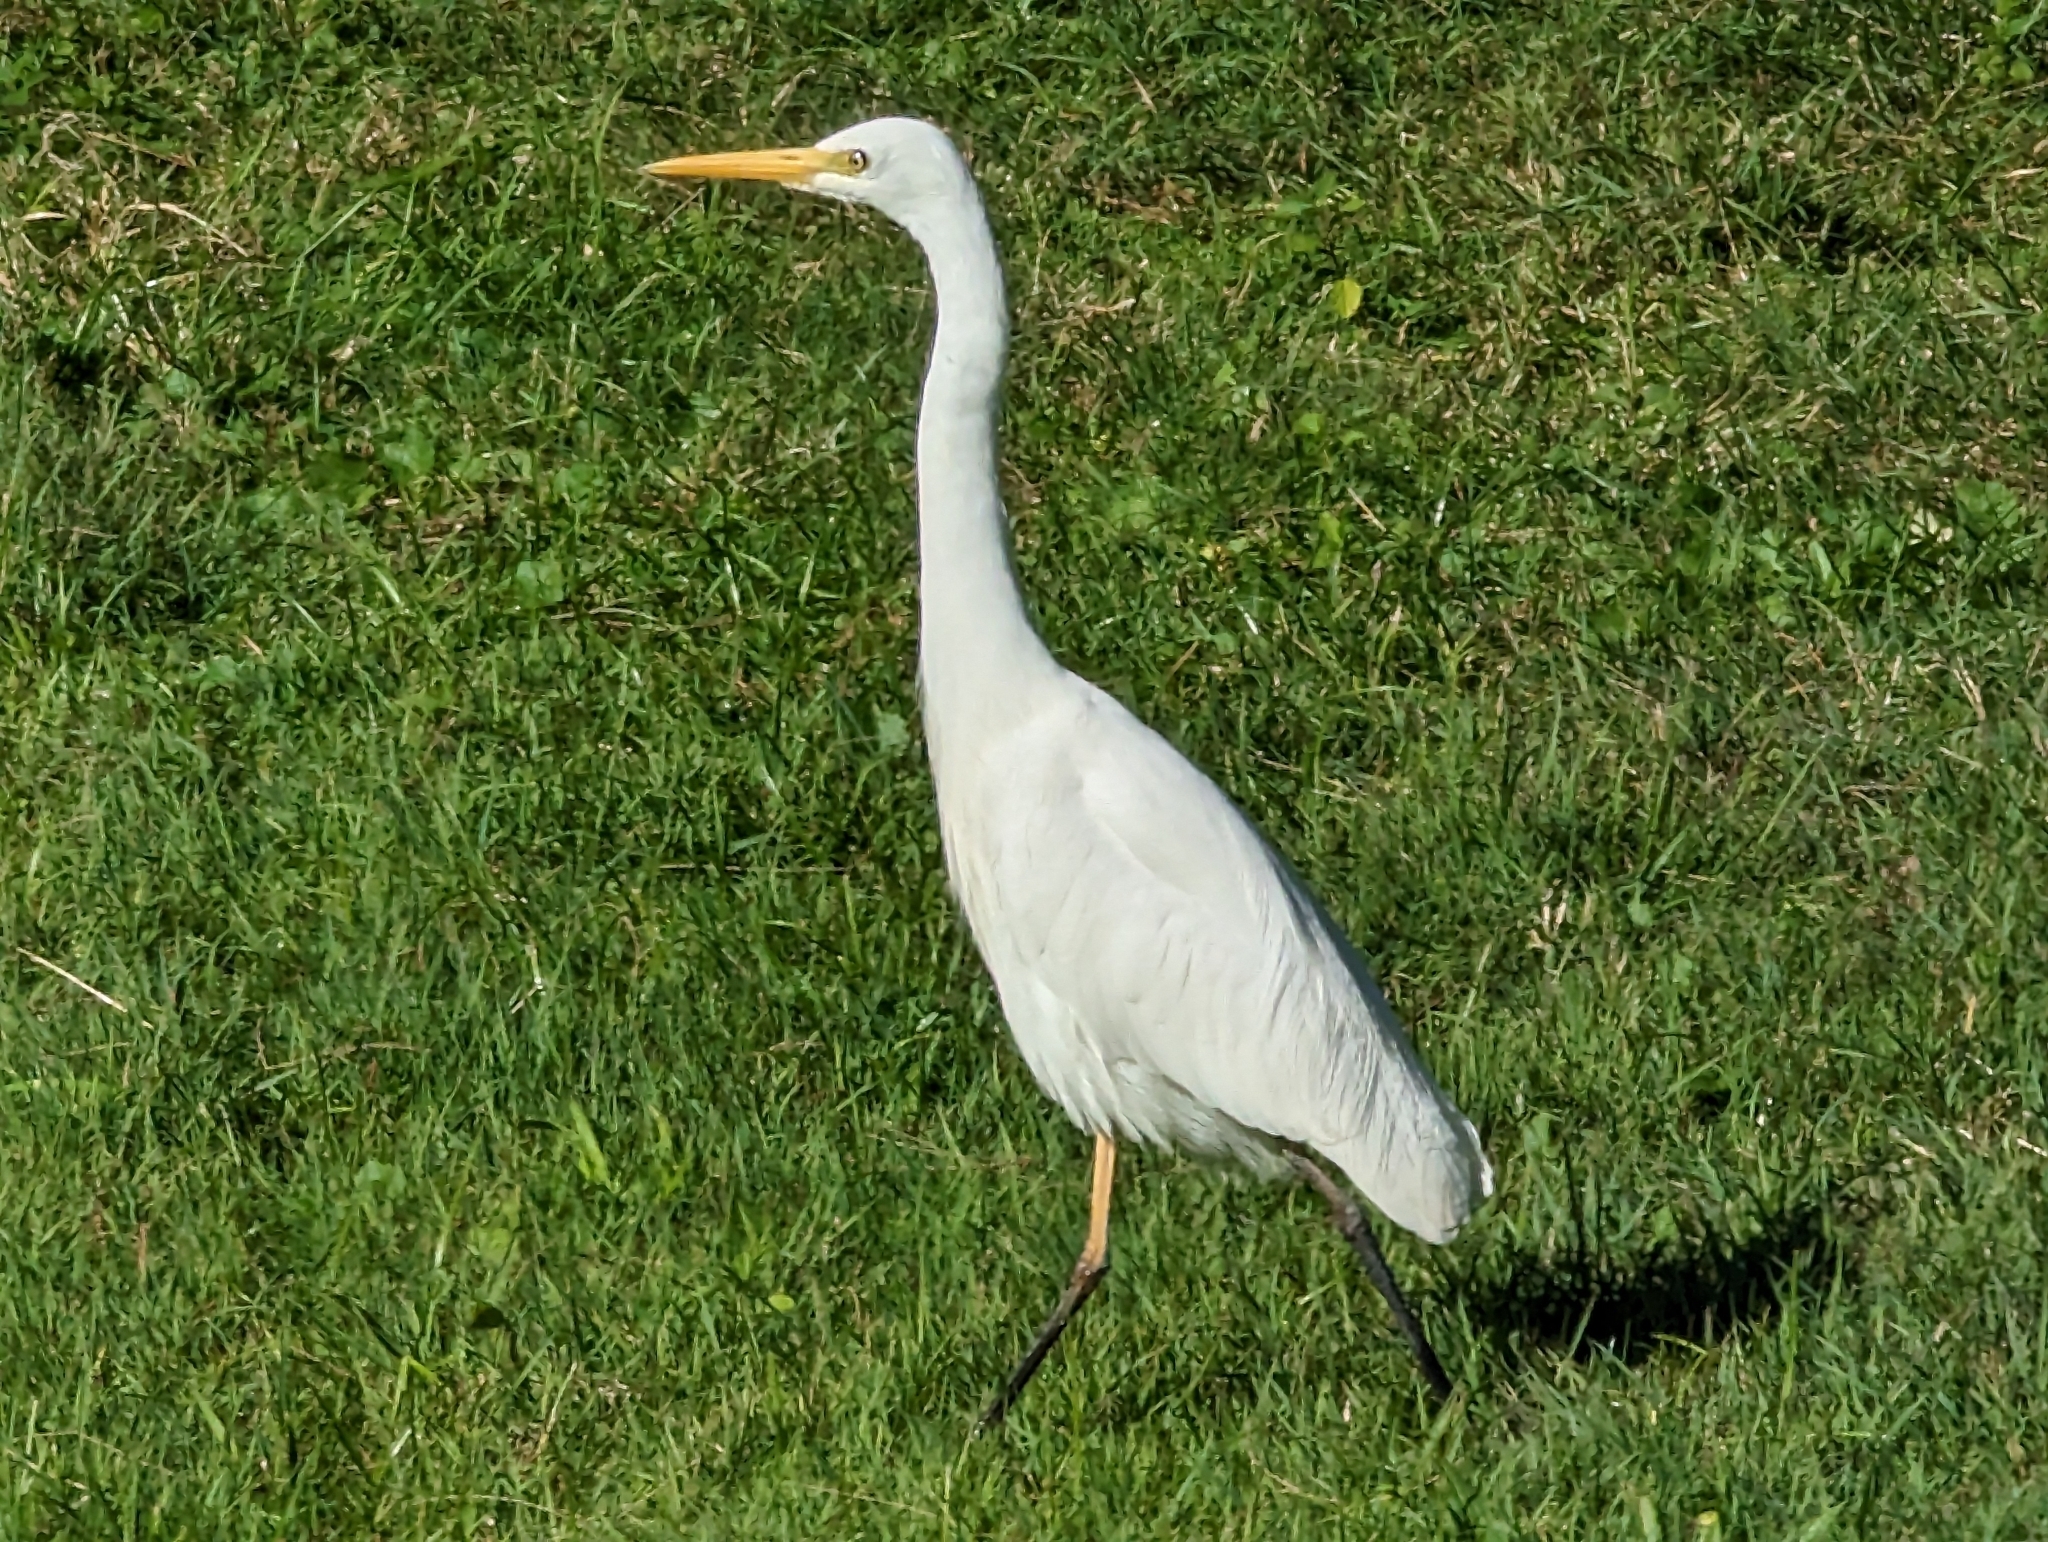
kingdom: Animalia
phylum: Chordata
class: Aves
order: Pelecaniformes
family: Ardeidae
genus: Egretta
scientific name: Egretta intermedia
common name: Intermediate egret
